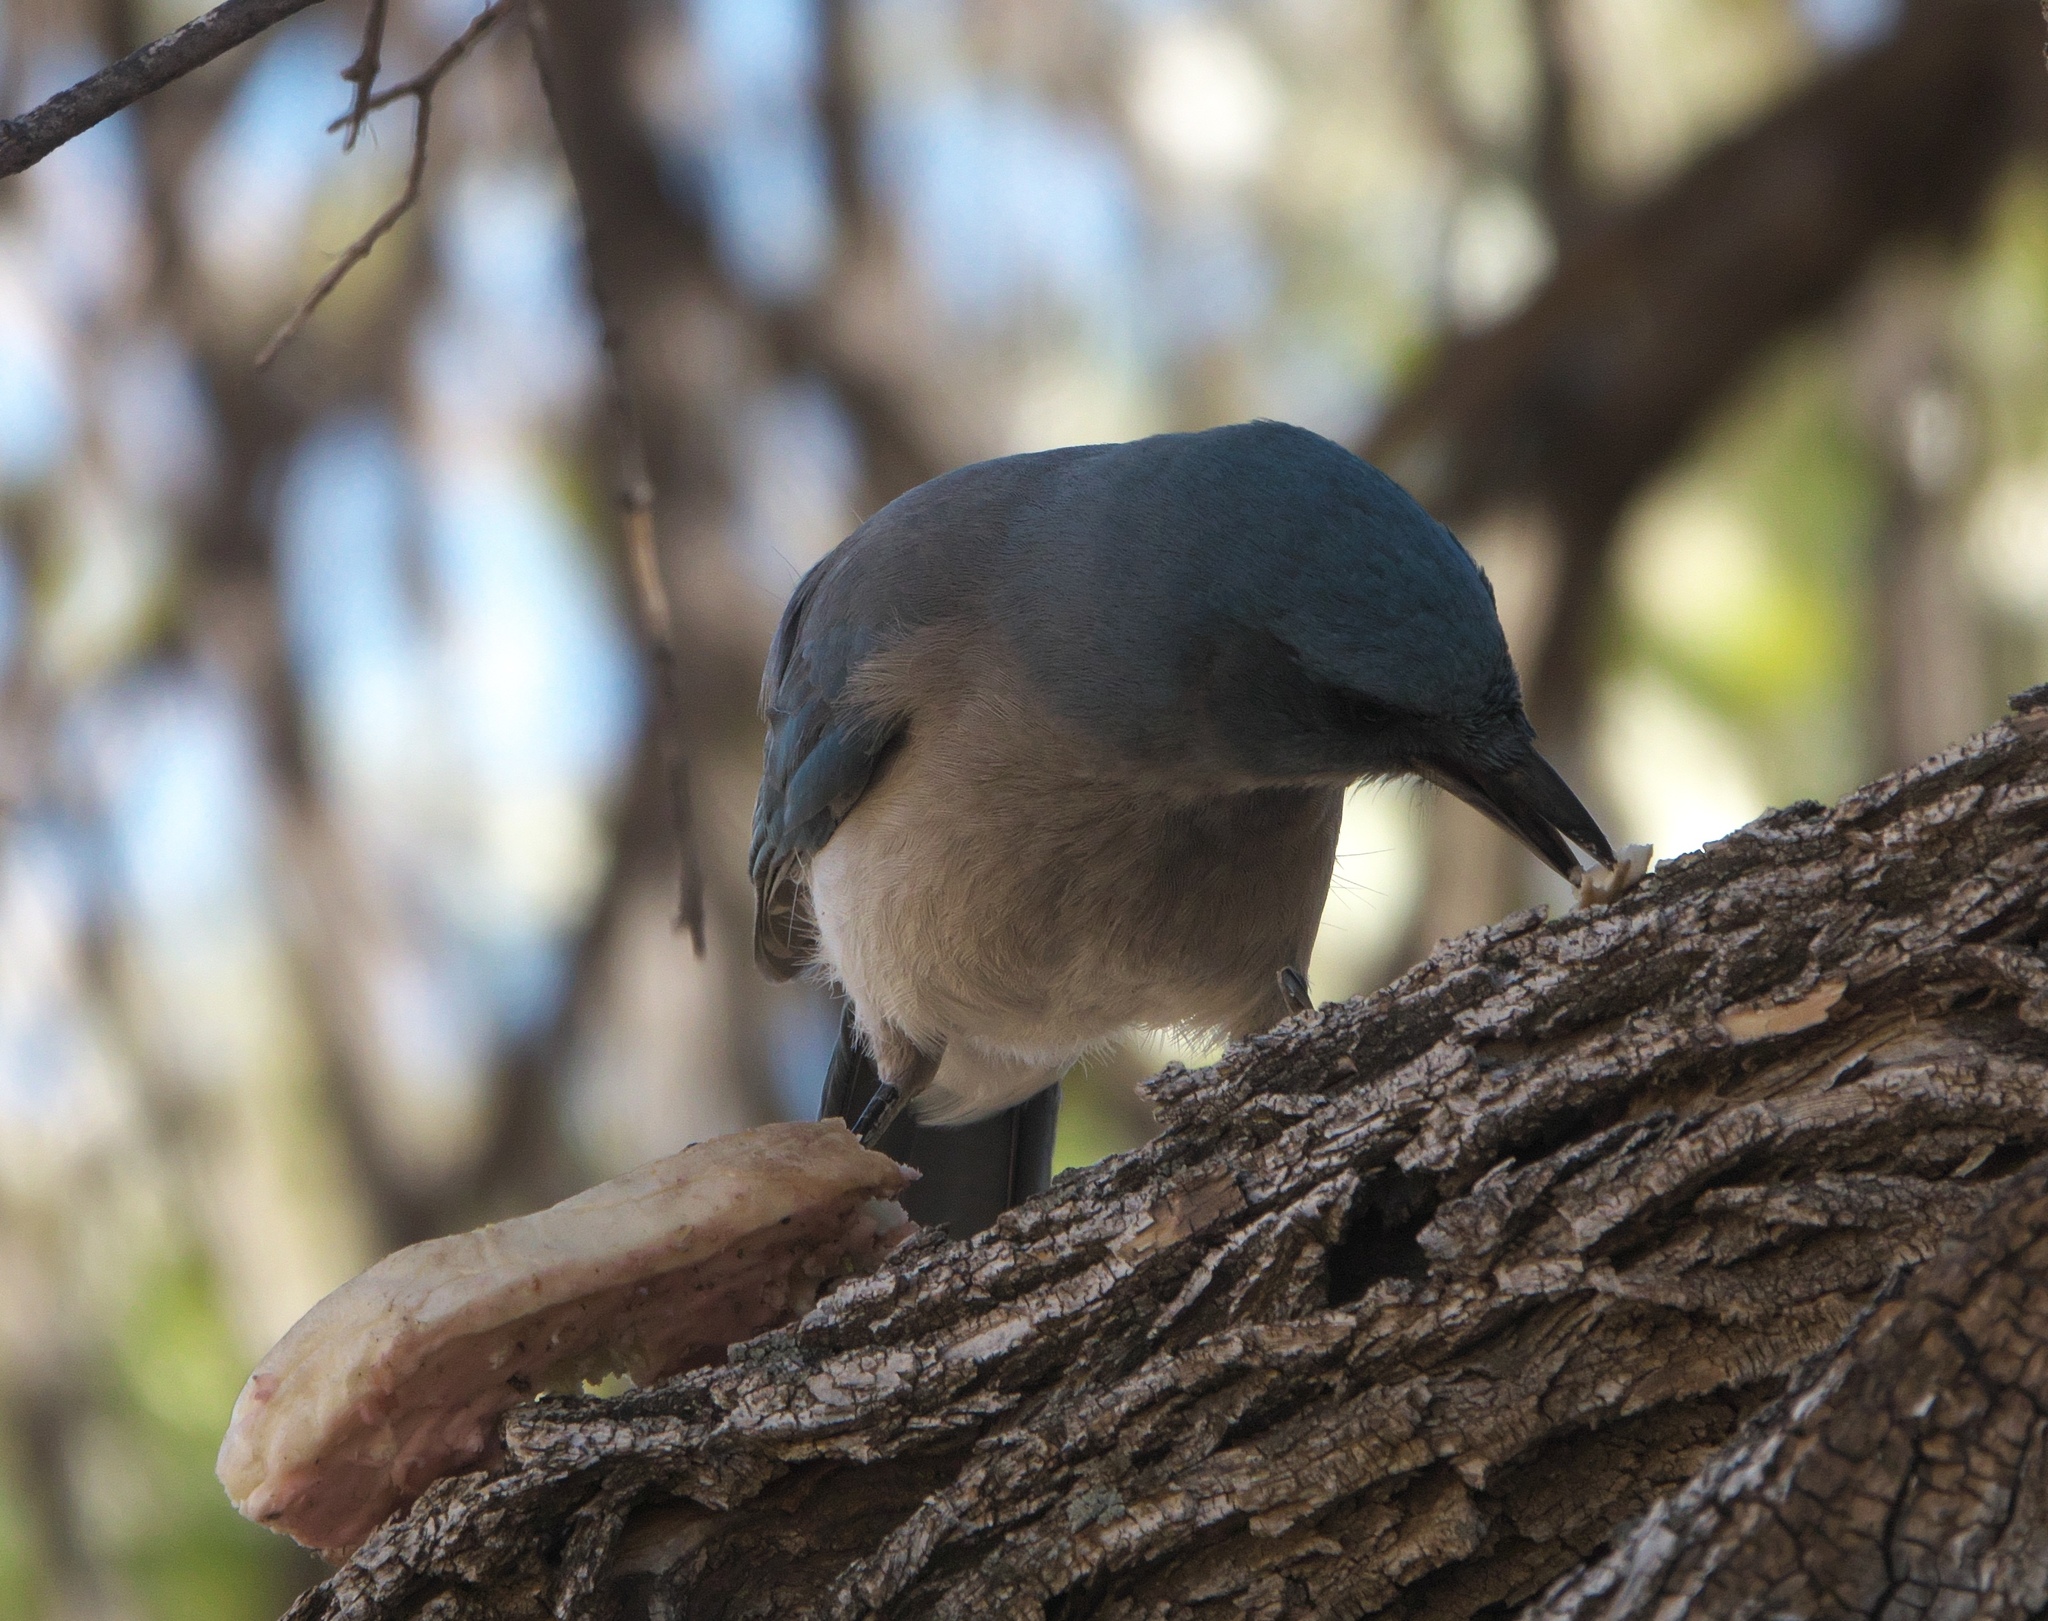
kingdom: Animalia
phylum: Chordata
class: Aves
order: Passeriformes
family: Corvidae
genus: Aphelocoma
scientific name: Aphelocoma wollweberi
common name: Mexican jay
